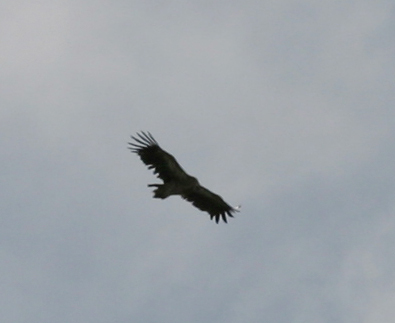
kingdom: Animalia
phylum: Chordata
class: Aves
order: Accipitriformes
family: Accipitridae
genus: Gyps
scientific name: Gyps himalayensis
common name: Himalayan griffon
